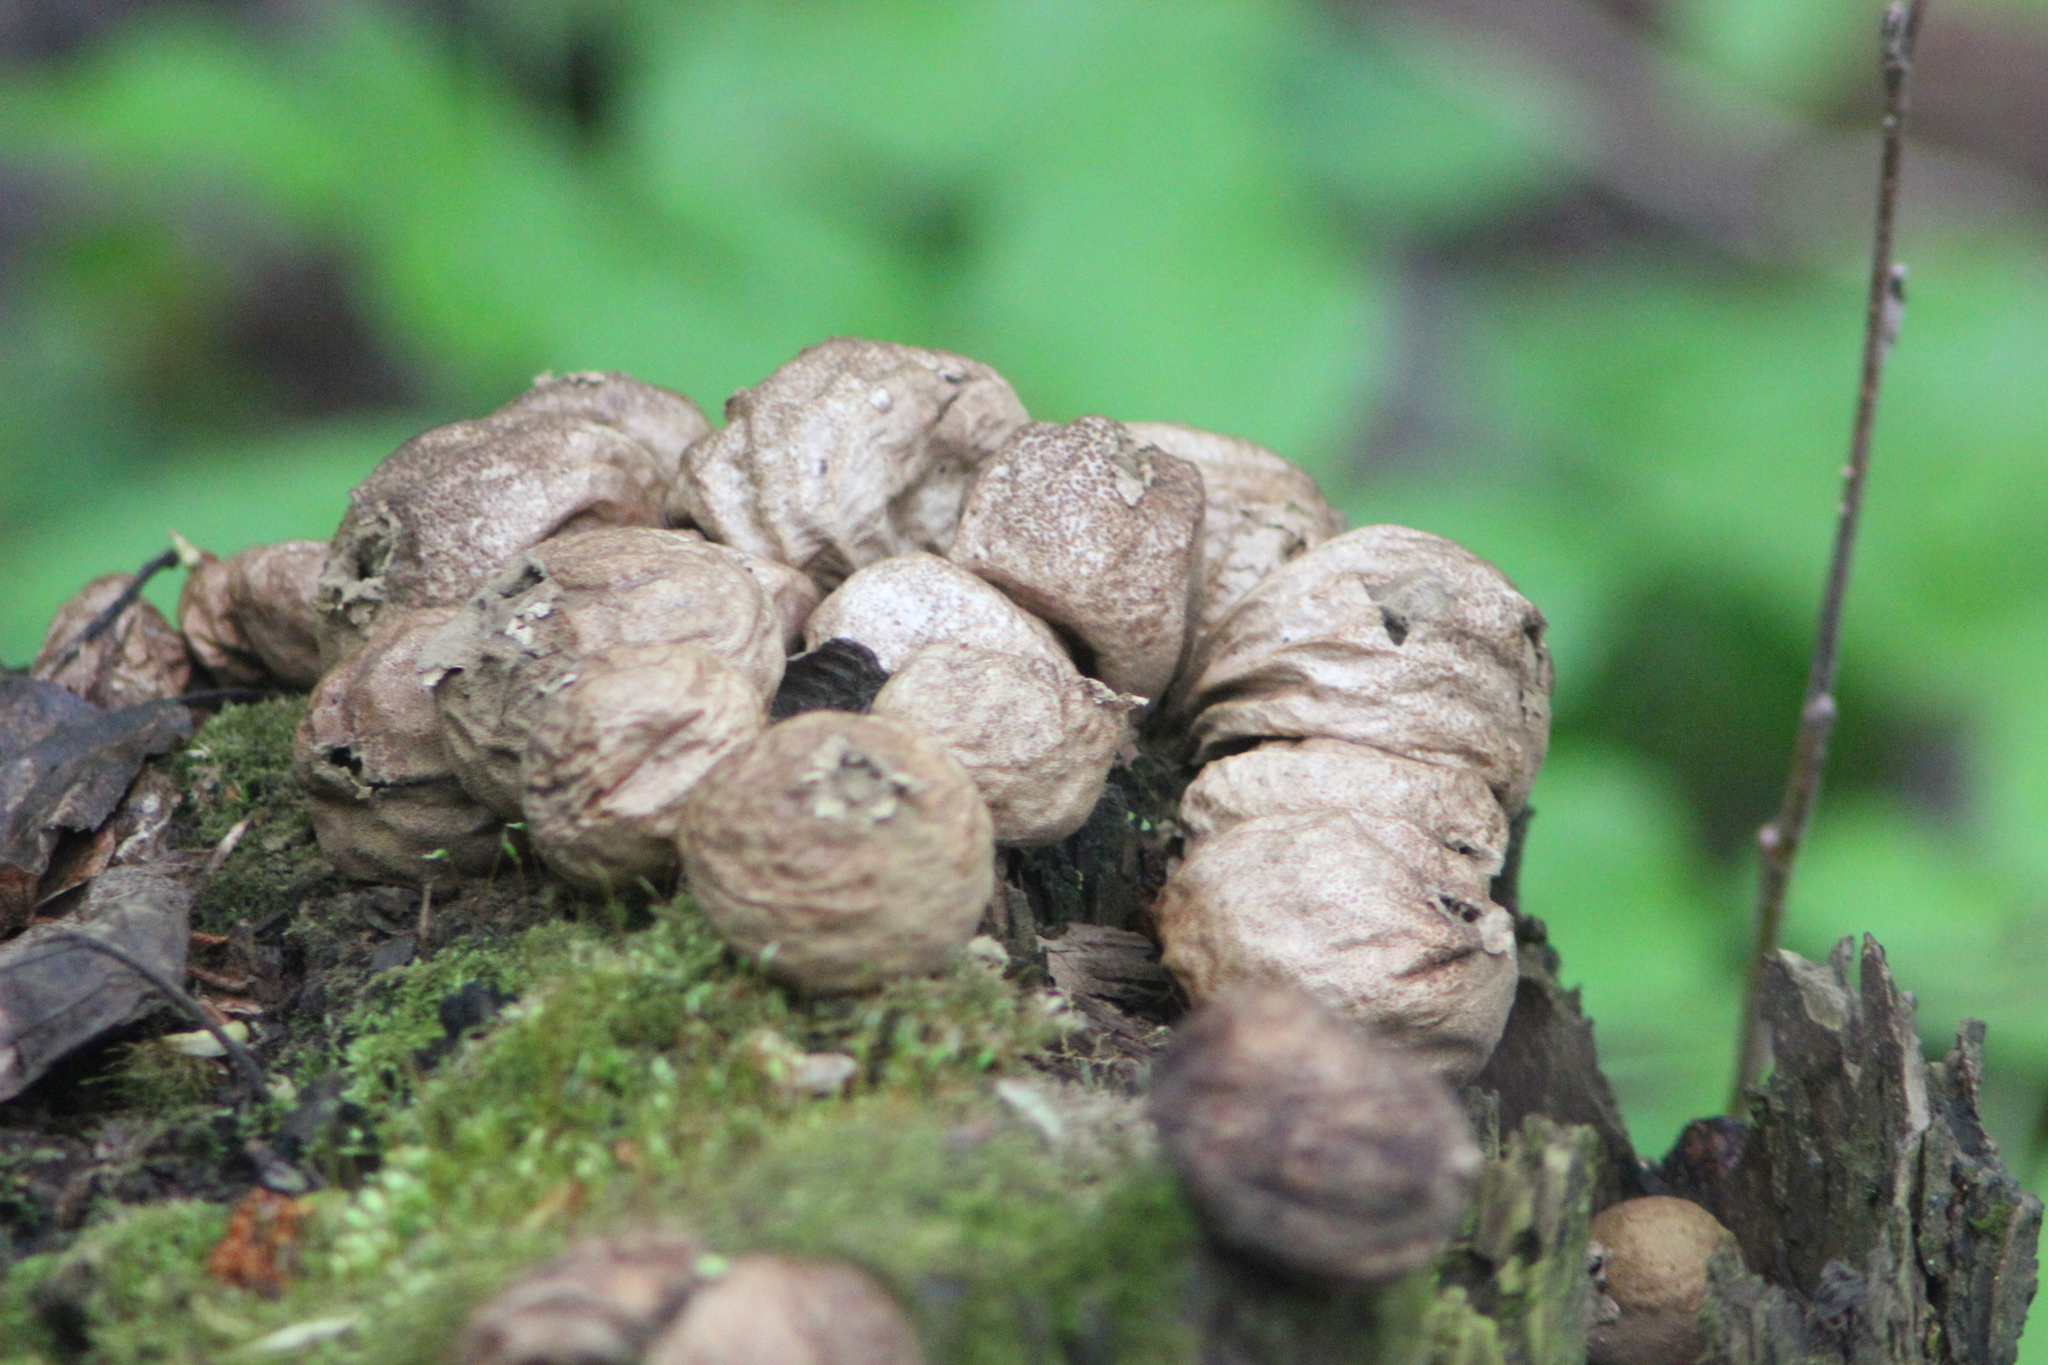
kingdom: Fungi
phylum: Basidiomycota
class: Agaricomycetes
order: Agaricales
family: Lycoperdaceae
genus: Apioperdon
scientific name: Apioperdon pyriforme
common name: Pear-shaped puffball
